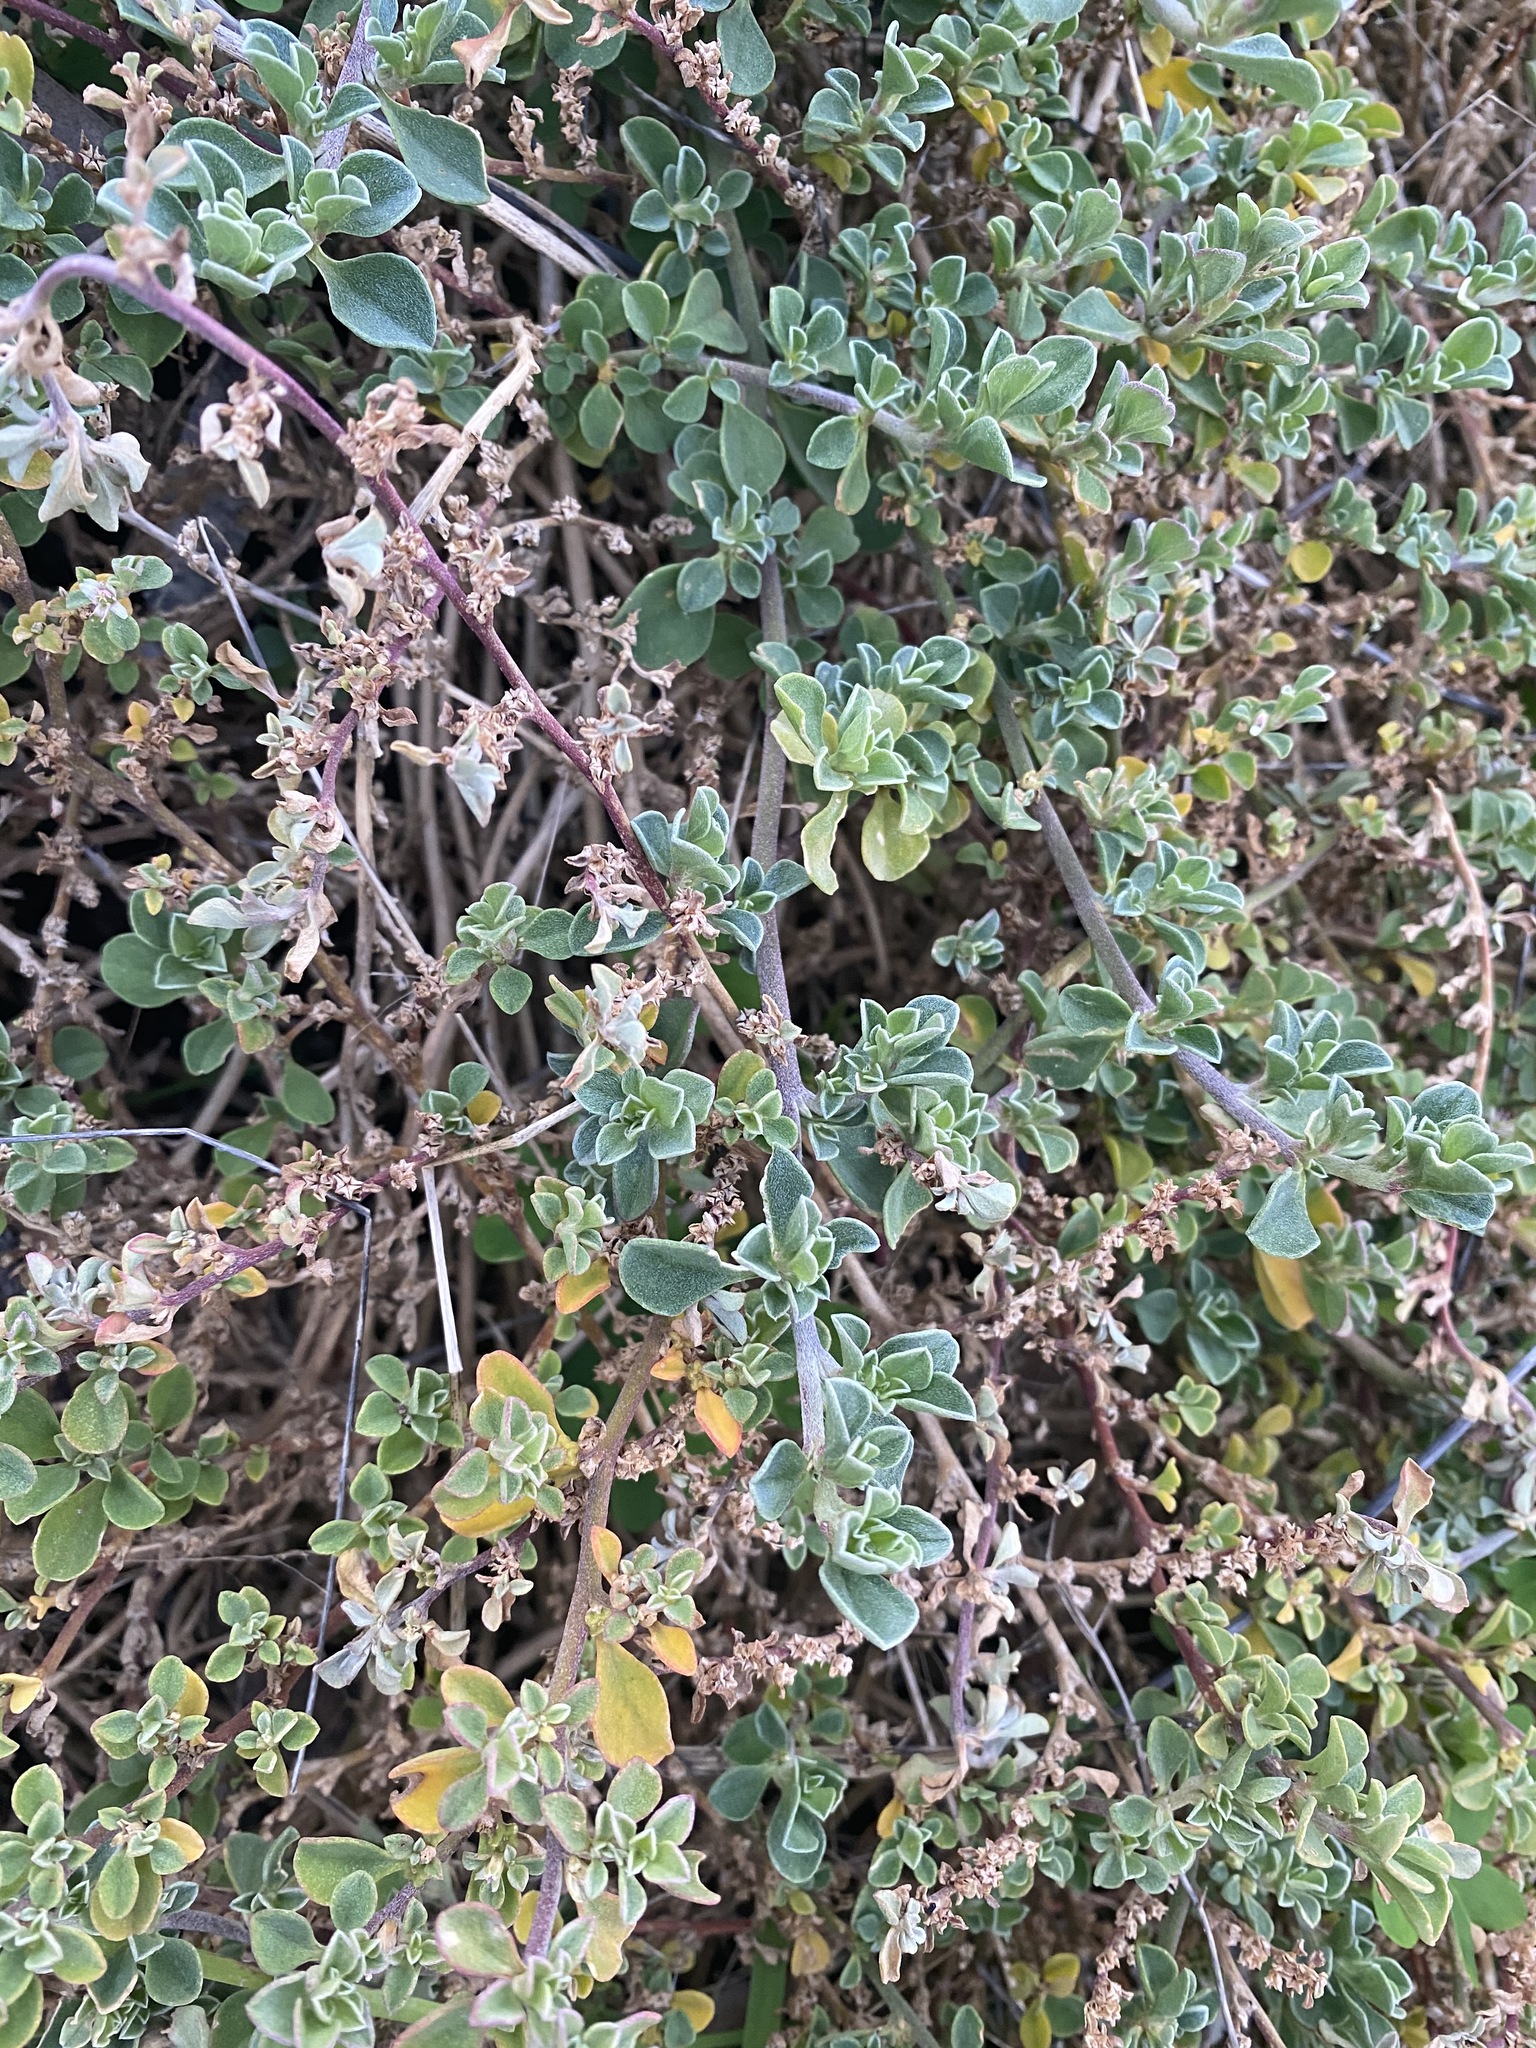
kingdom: Plantae
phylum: Tracheophyta
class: Magnoliopsida
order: Caryophyllales
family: Aizoaceae
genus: Aizoon
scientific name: Aizoon pubescens
